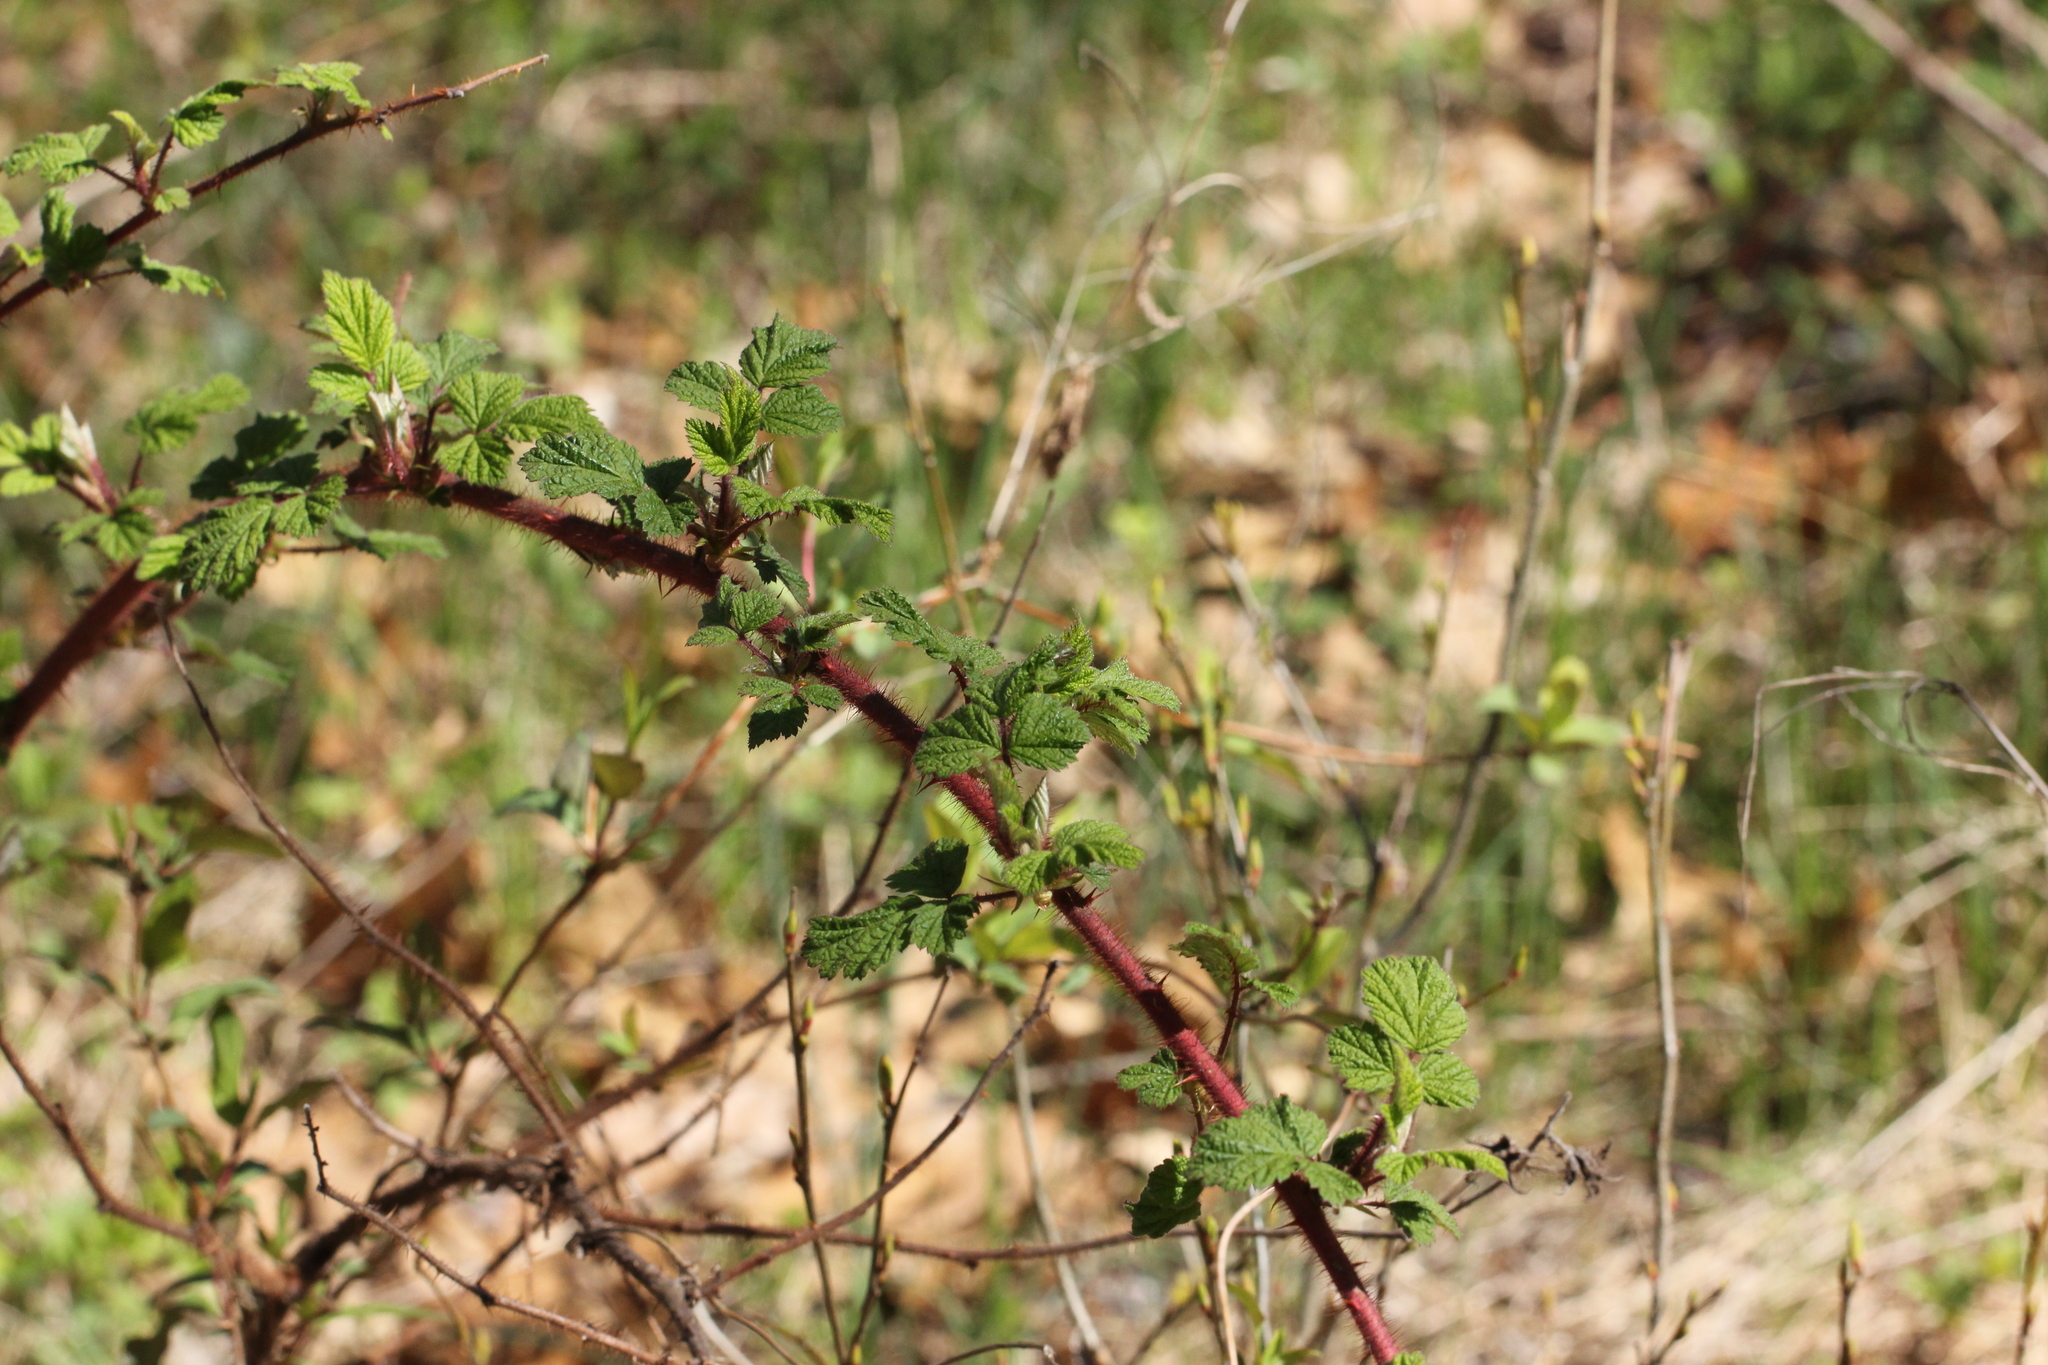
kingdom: Plantae
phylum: Tracheophyta
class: Magnoliopsida
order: Rosales
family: Rosaceae
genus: Rubus
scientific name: Rubus phoenicolasius
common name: Japanese wineberry
